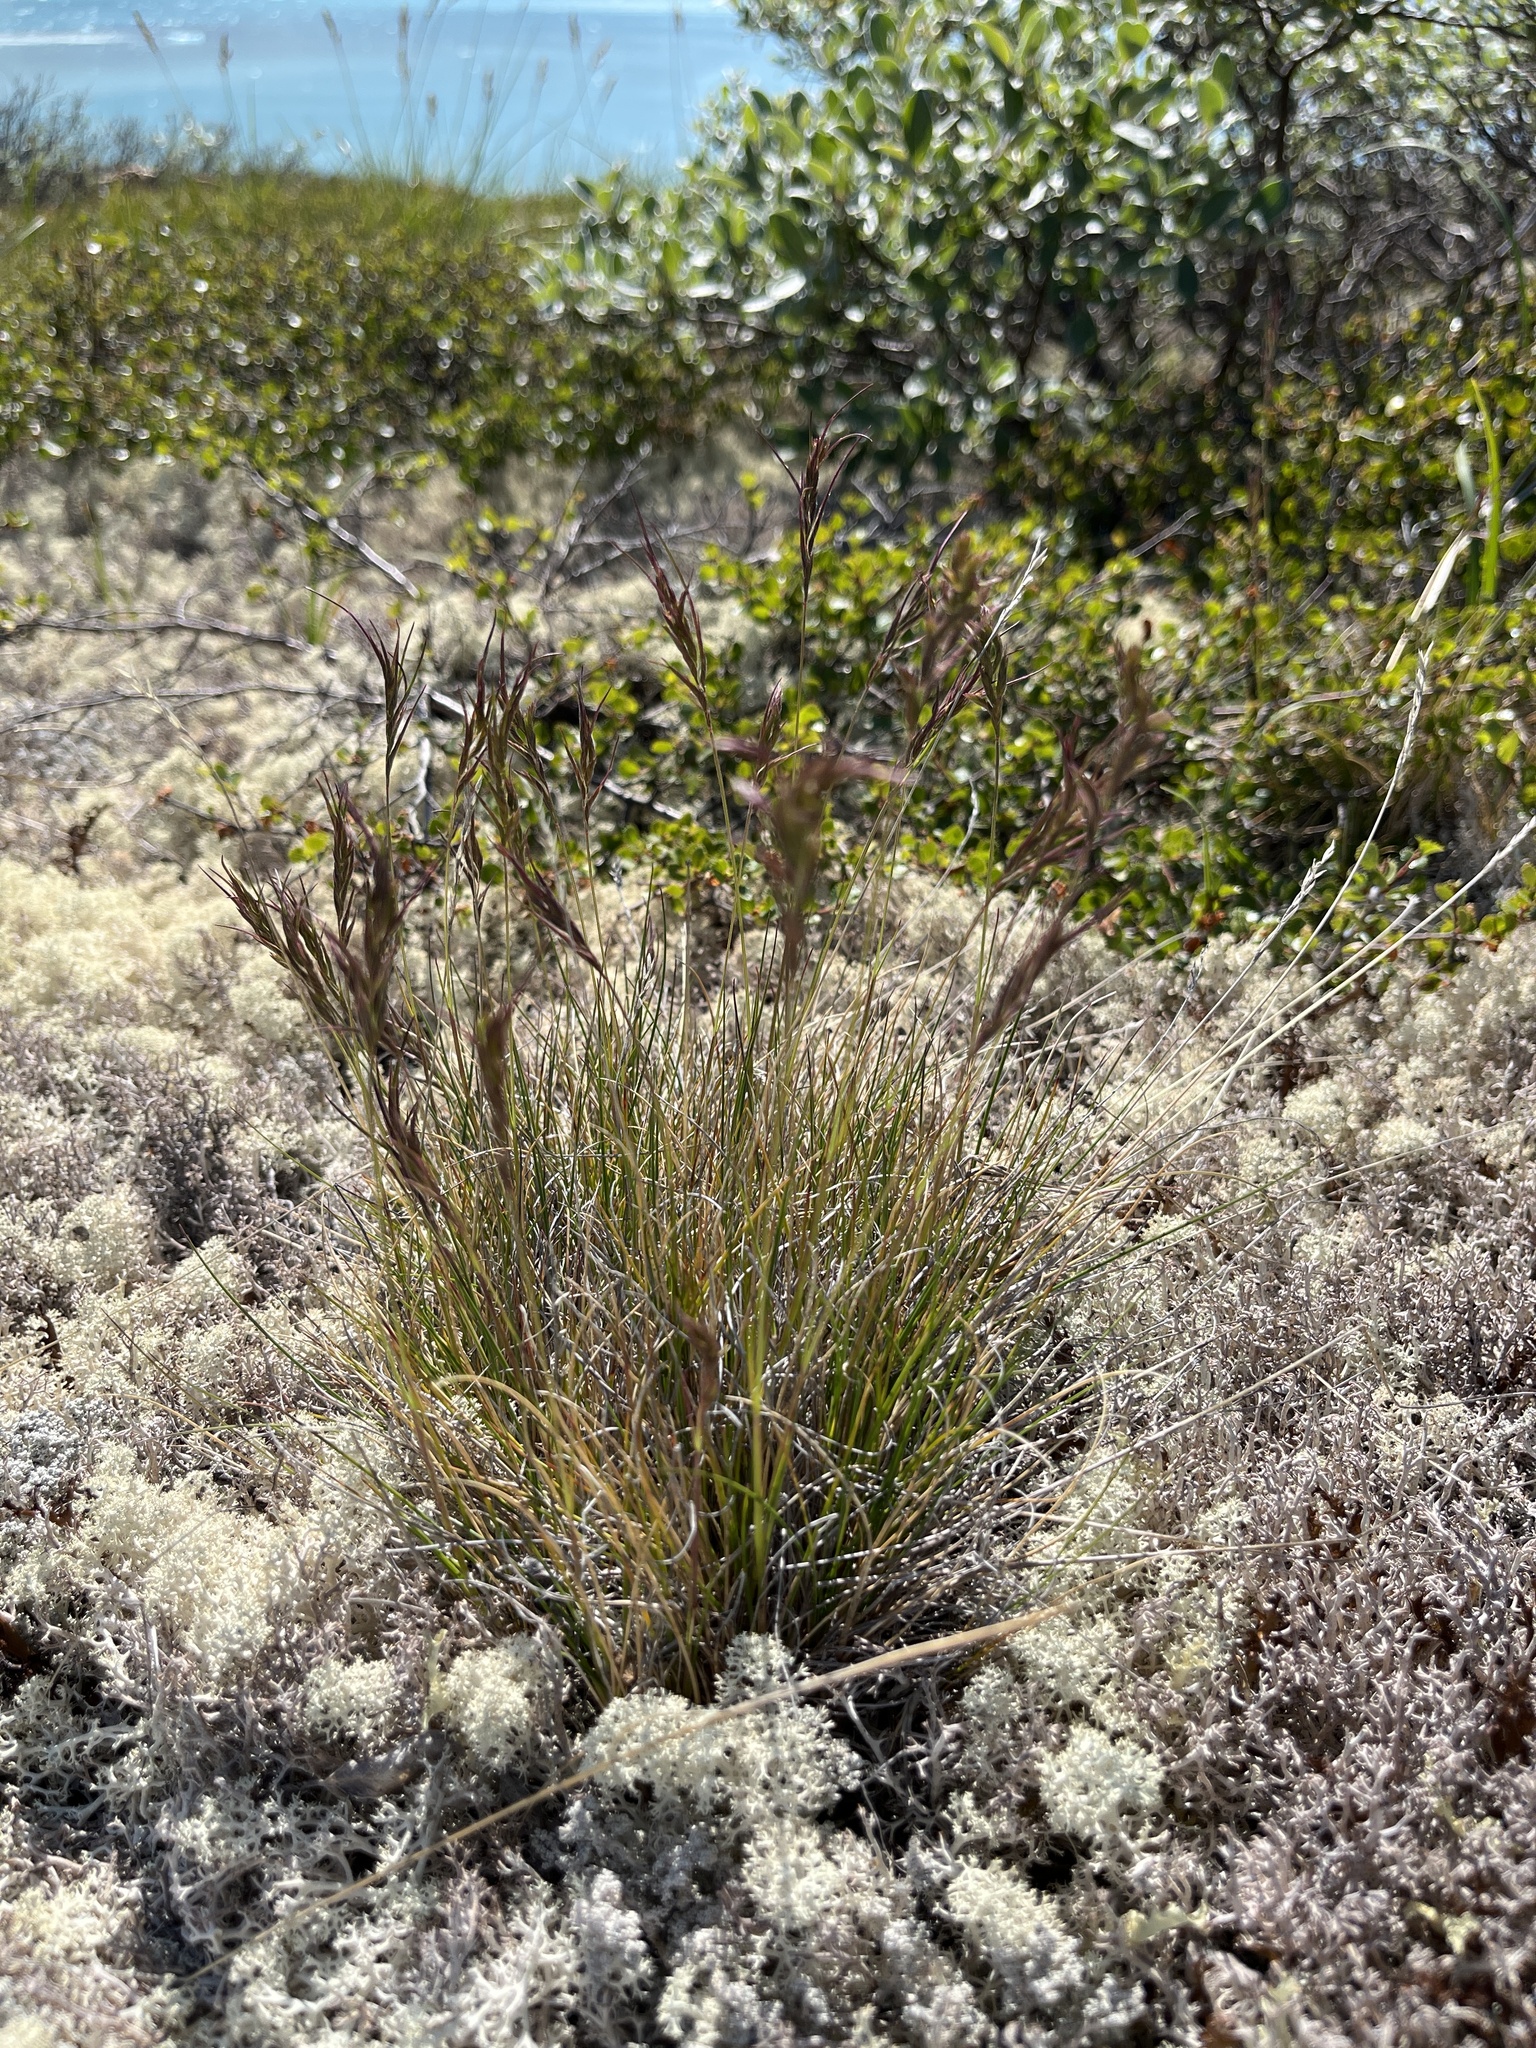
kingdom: Plantae
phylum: Tracheophyta
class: Liliopsida
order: Poales
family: Poaceae
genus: Festuca
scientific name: Festuca vivipara
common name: Viviparous sheep's-fescue
